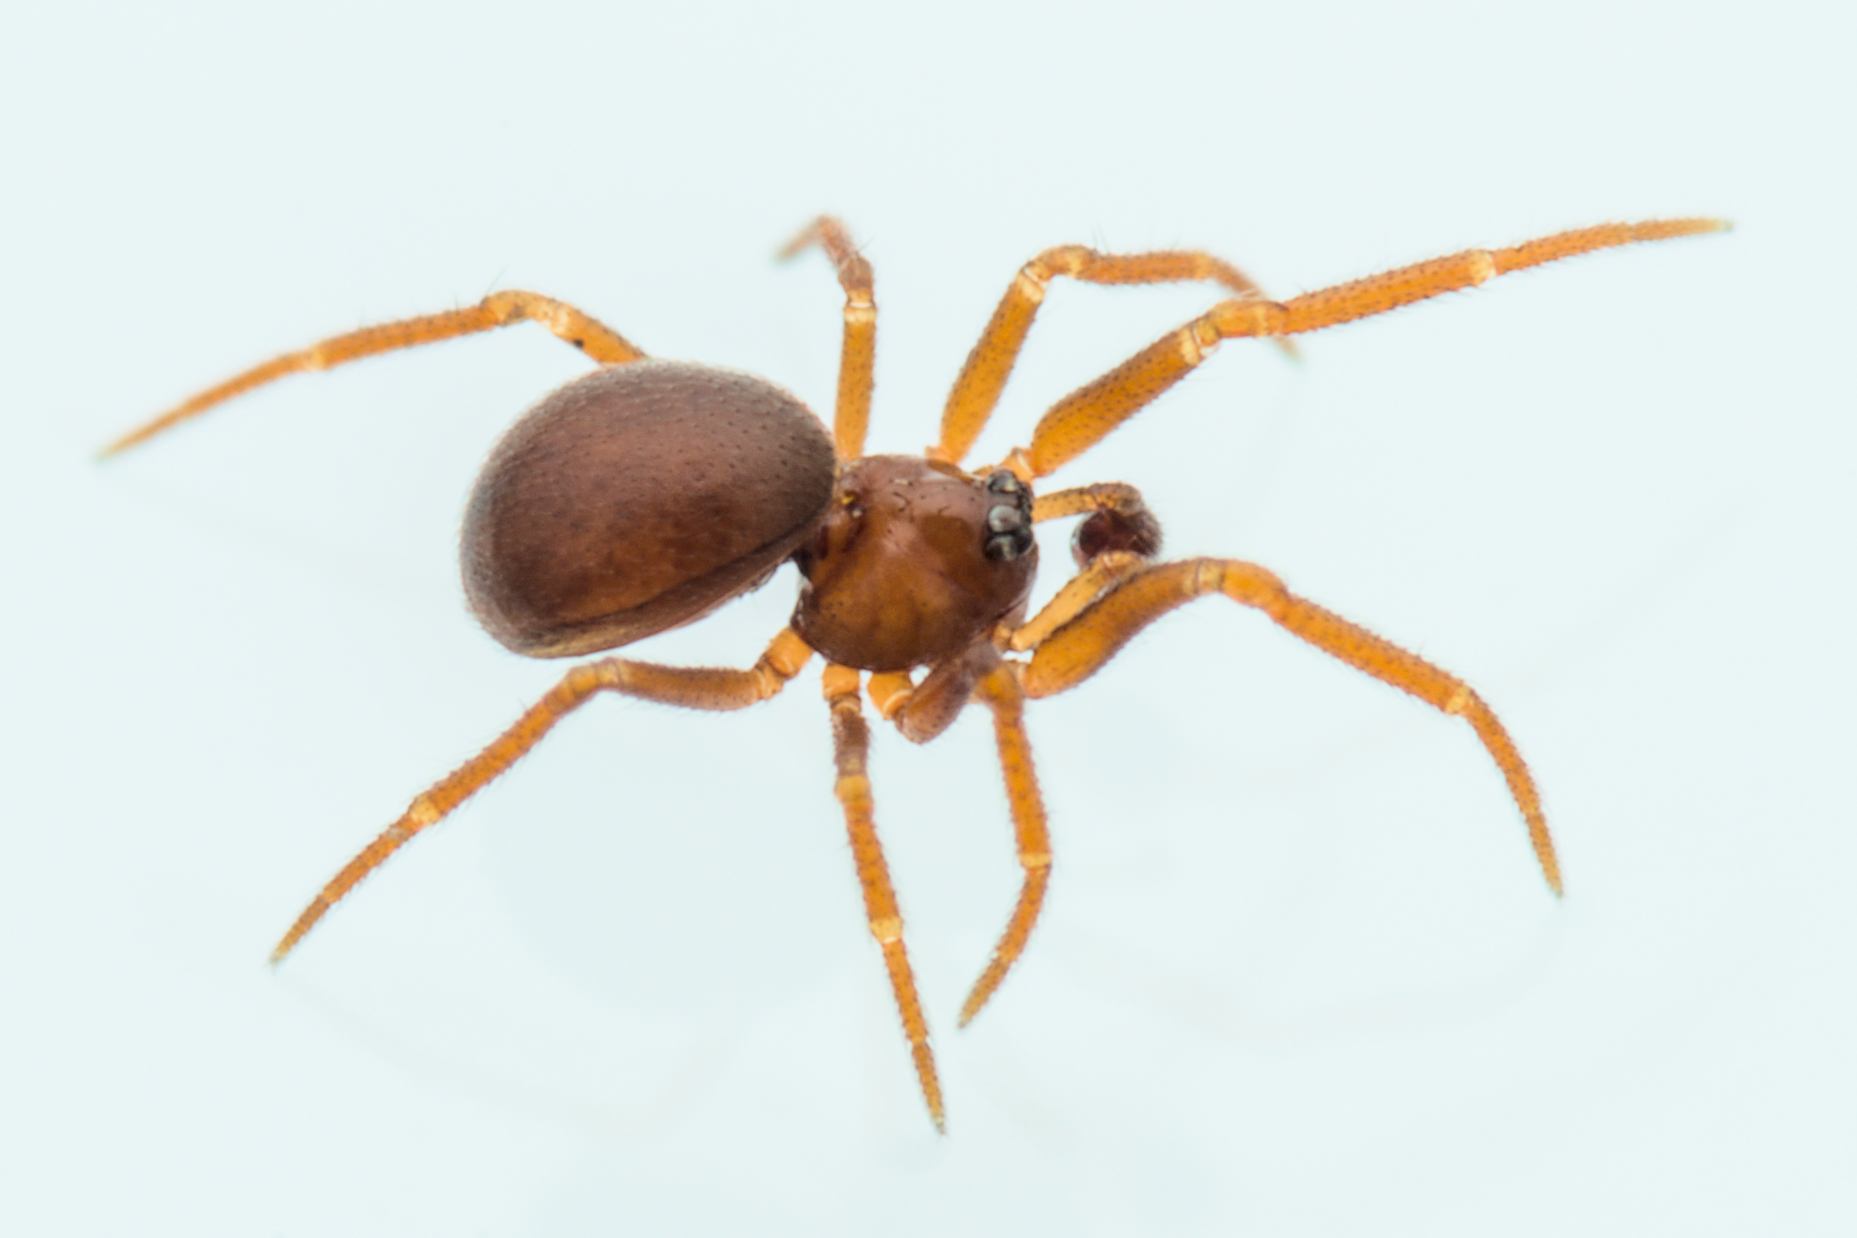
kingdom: Animalia
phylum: Arthropoda
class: Arachnida
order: Araneae
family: Theridiidae
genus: Pholcomma
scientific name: Pholcomma gibbum
